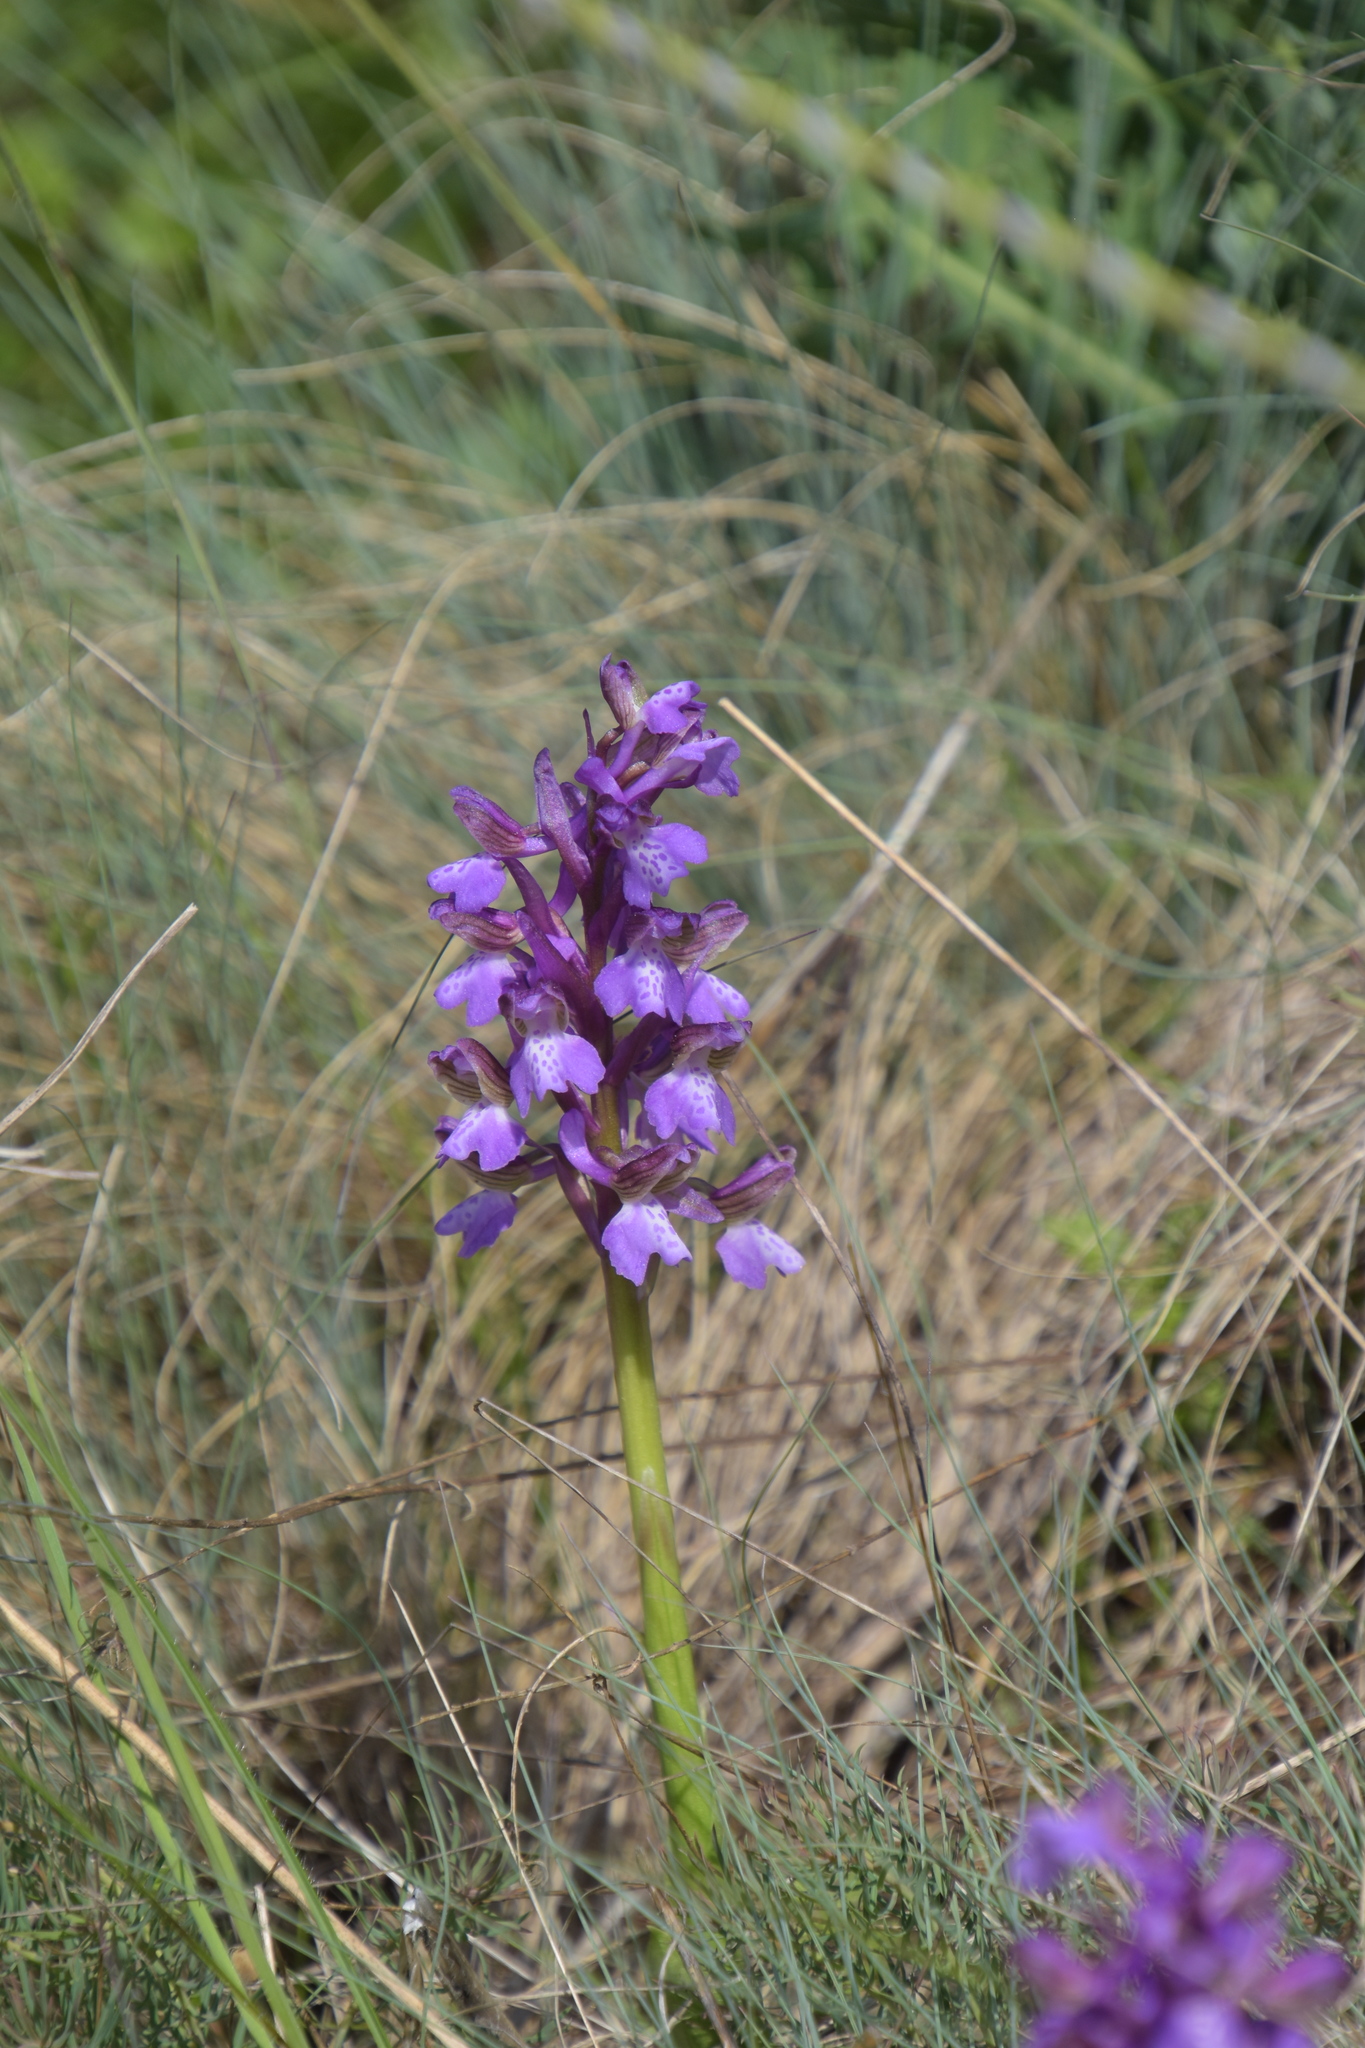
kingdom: Plantae
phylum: Tracheophyta
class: Liliopsida
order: Asparagales
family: Orchidaceae
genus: Anacamptis
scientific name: Anacamptis morio
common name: Green-winged orchid
